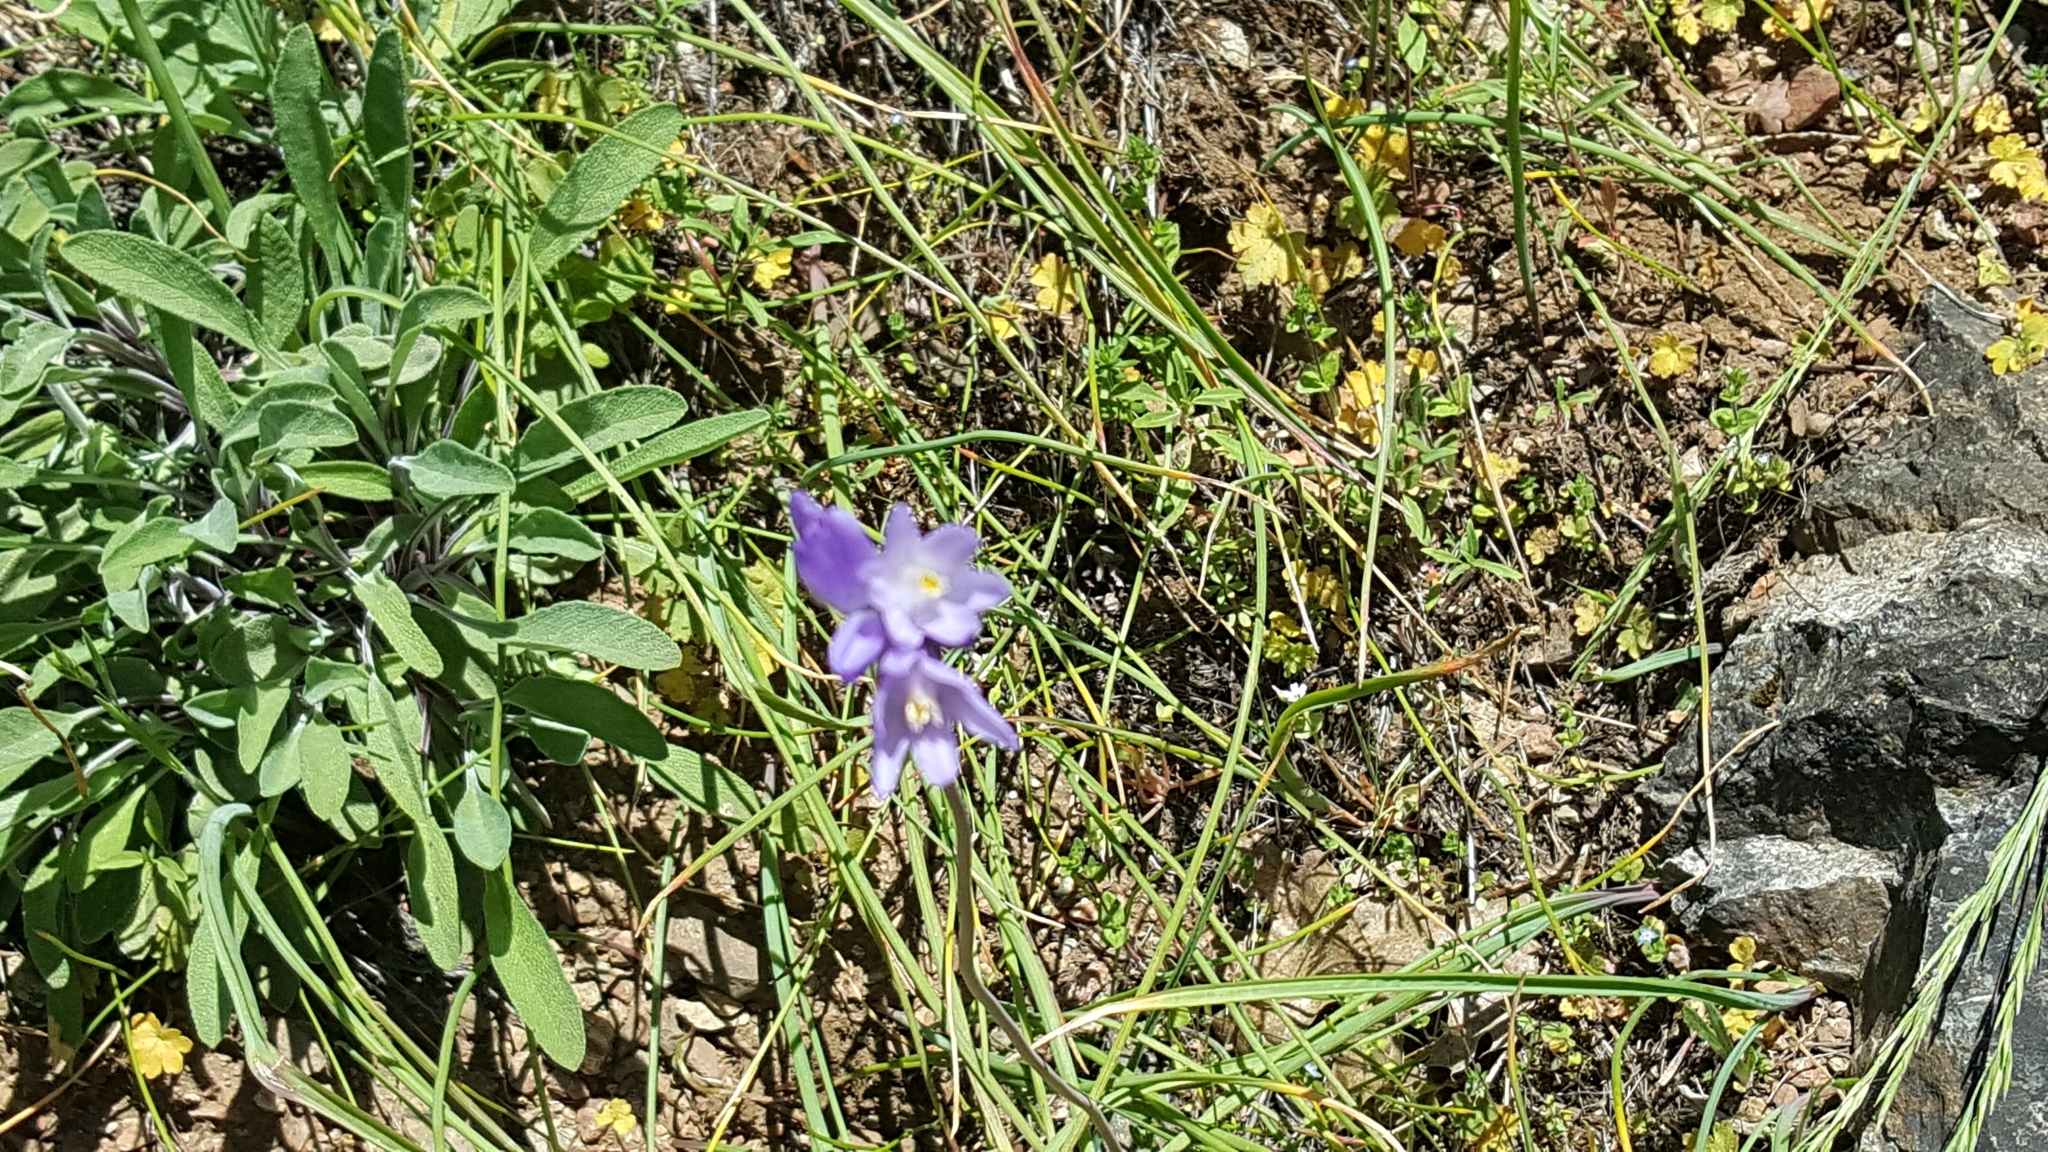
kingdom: Plantae
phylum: Tracheophyta
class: Liliopsida
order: Asparagales
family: Asparagaceae
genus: Dipterostemon
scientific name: Dipterostemon capitatus
